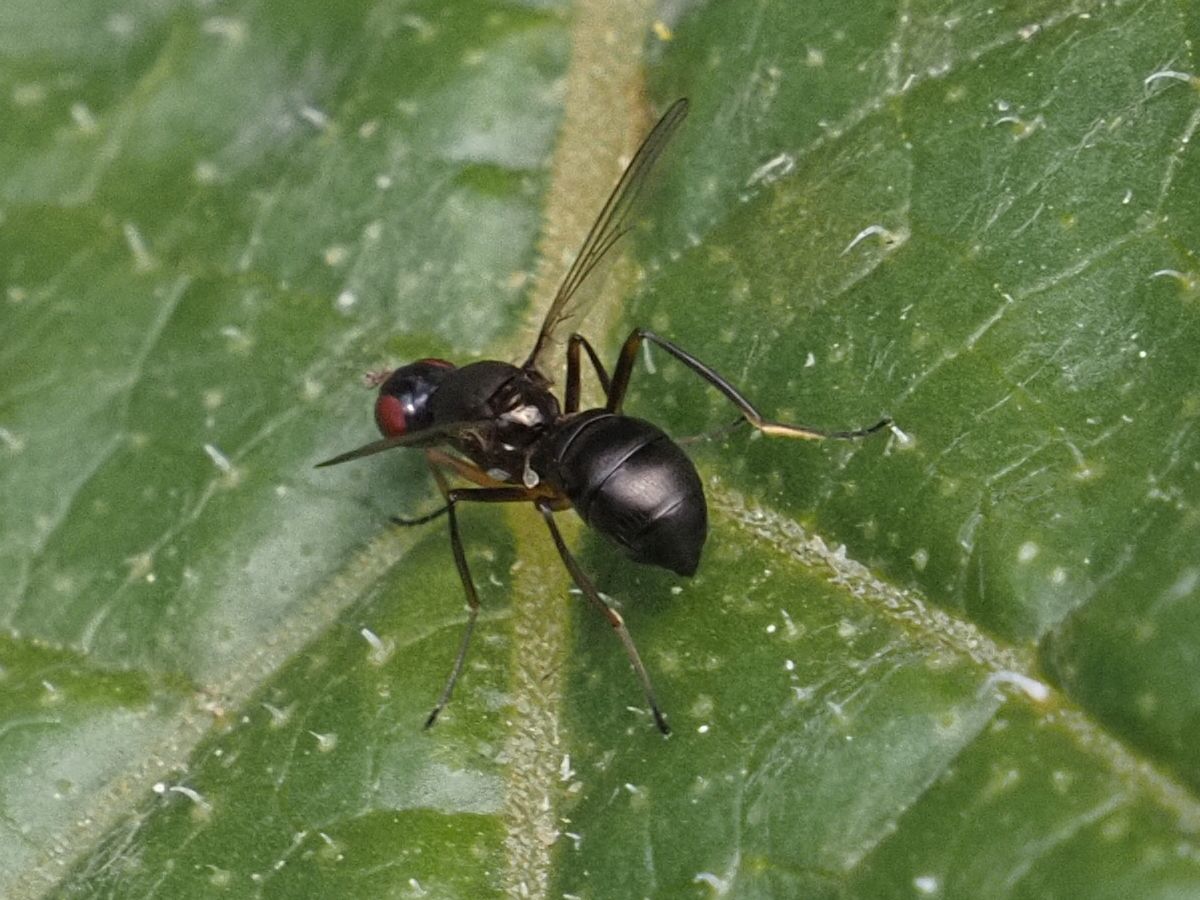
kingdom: Animalia
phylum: Arthropoda
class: Insecta
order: Diptera
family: Sepsidae
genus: Nemopoda
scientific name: Nemopoda nitidula
